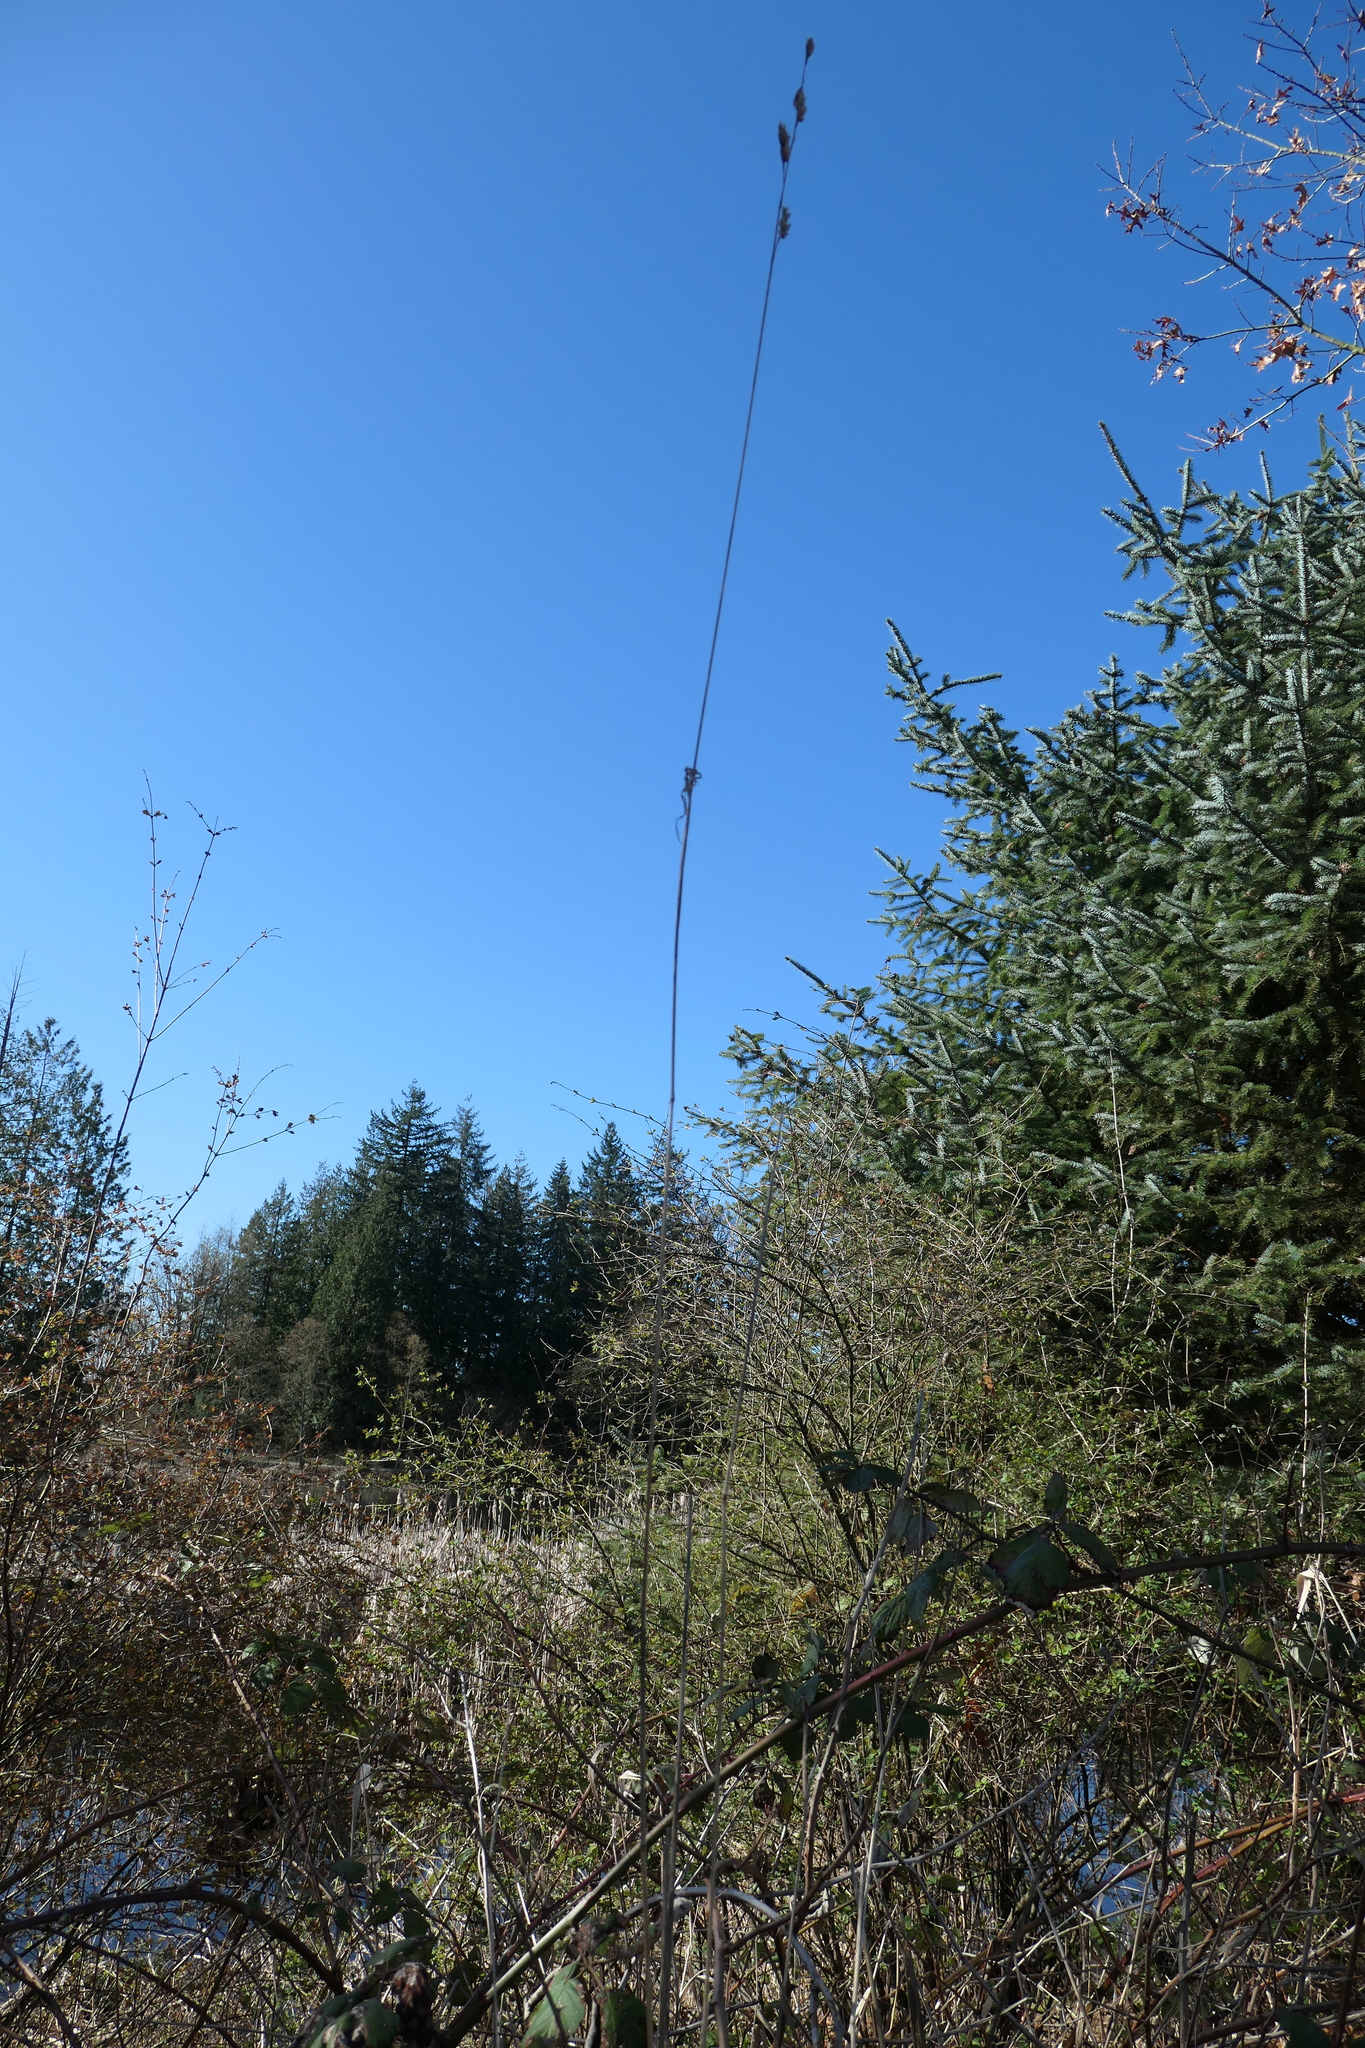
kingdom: Plantae
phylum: Tracheophyta
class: Liliopsida
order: Poales
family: Poaceae
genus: Dactylis
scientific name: Dactylis glomerata
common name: Orchardgrass
